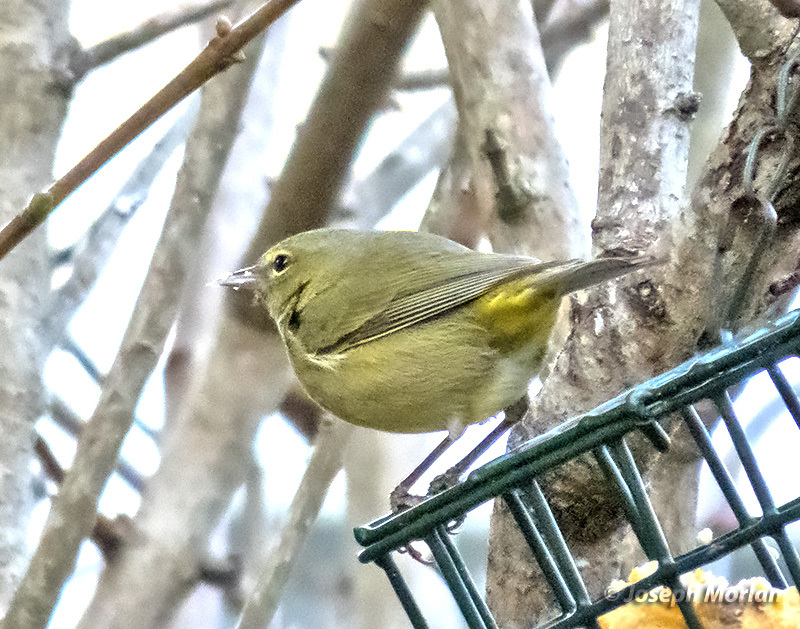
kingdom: Animalia
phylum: Chordata
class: Aves
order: Passeriformes
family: Parulidae
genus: Leiothlypis
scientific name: Leiothlypis celata
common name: Orange-crowned warbler
